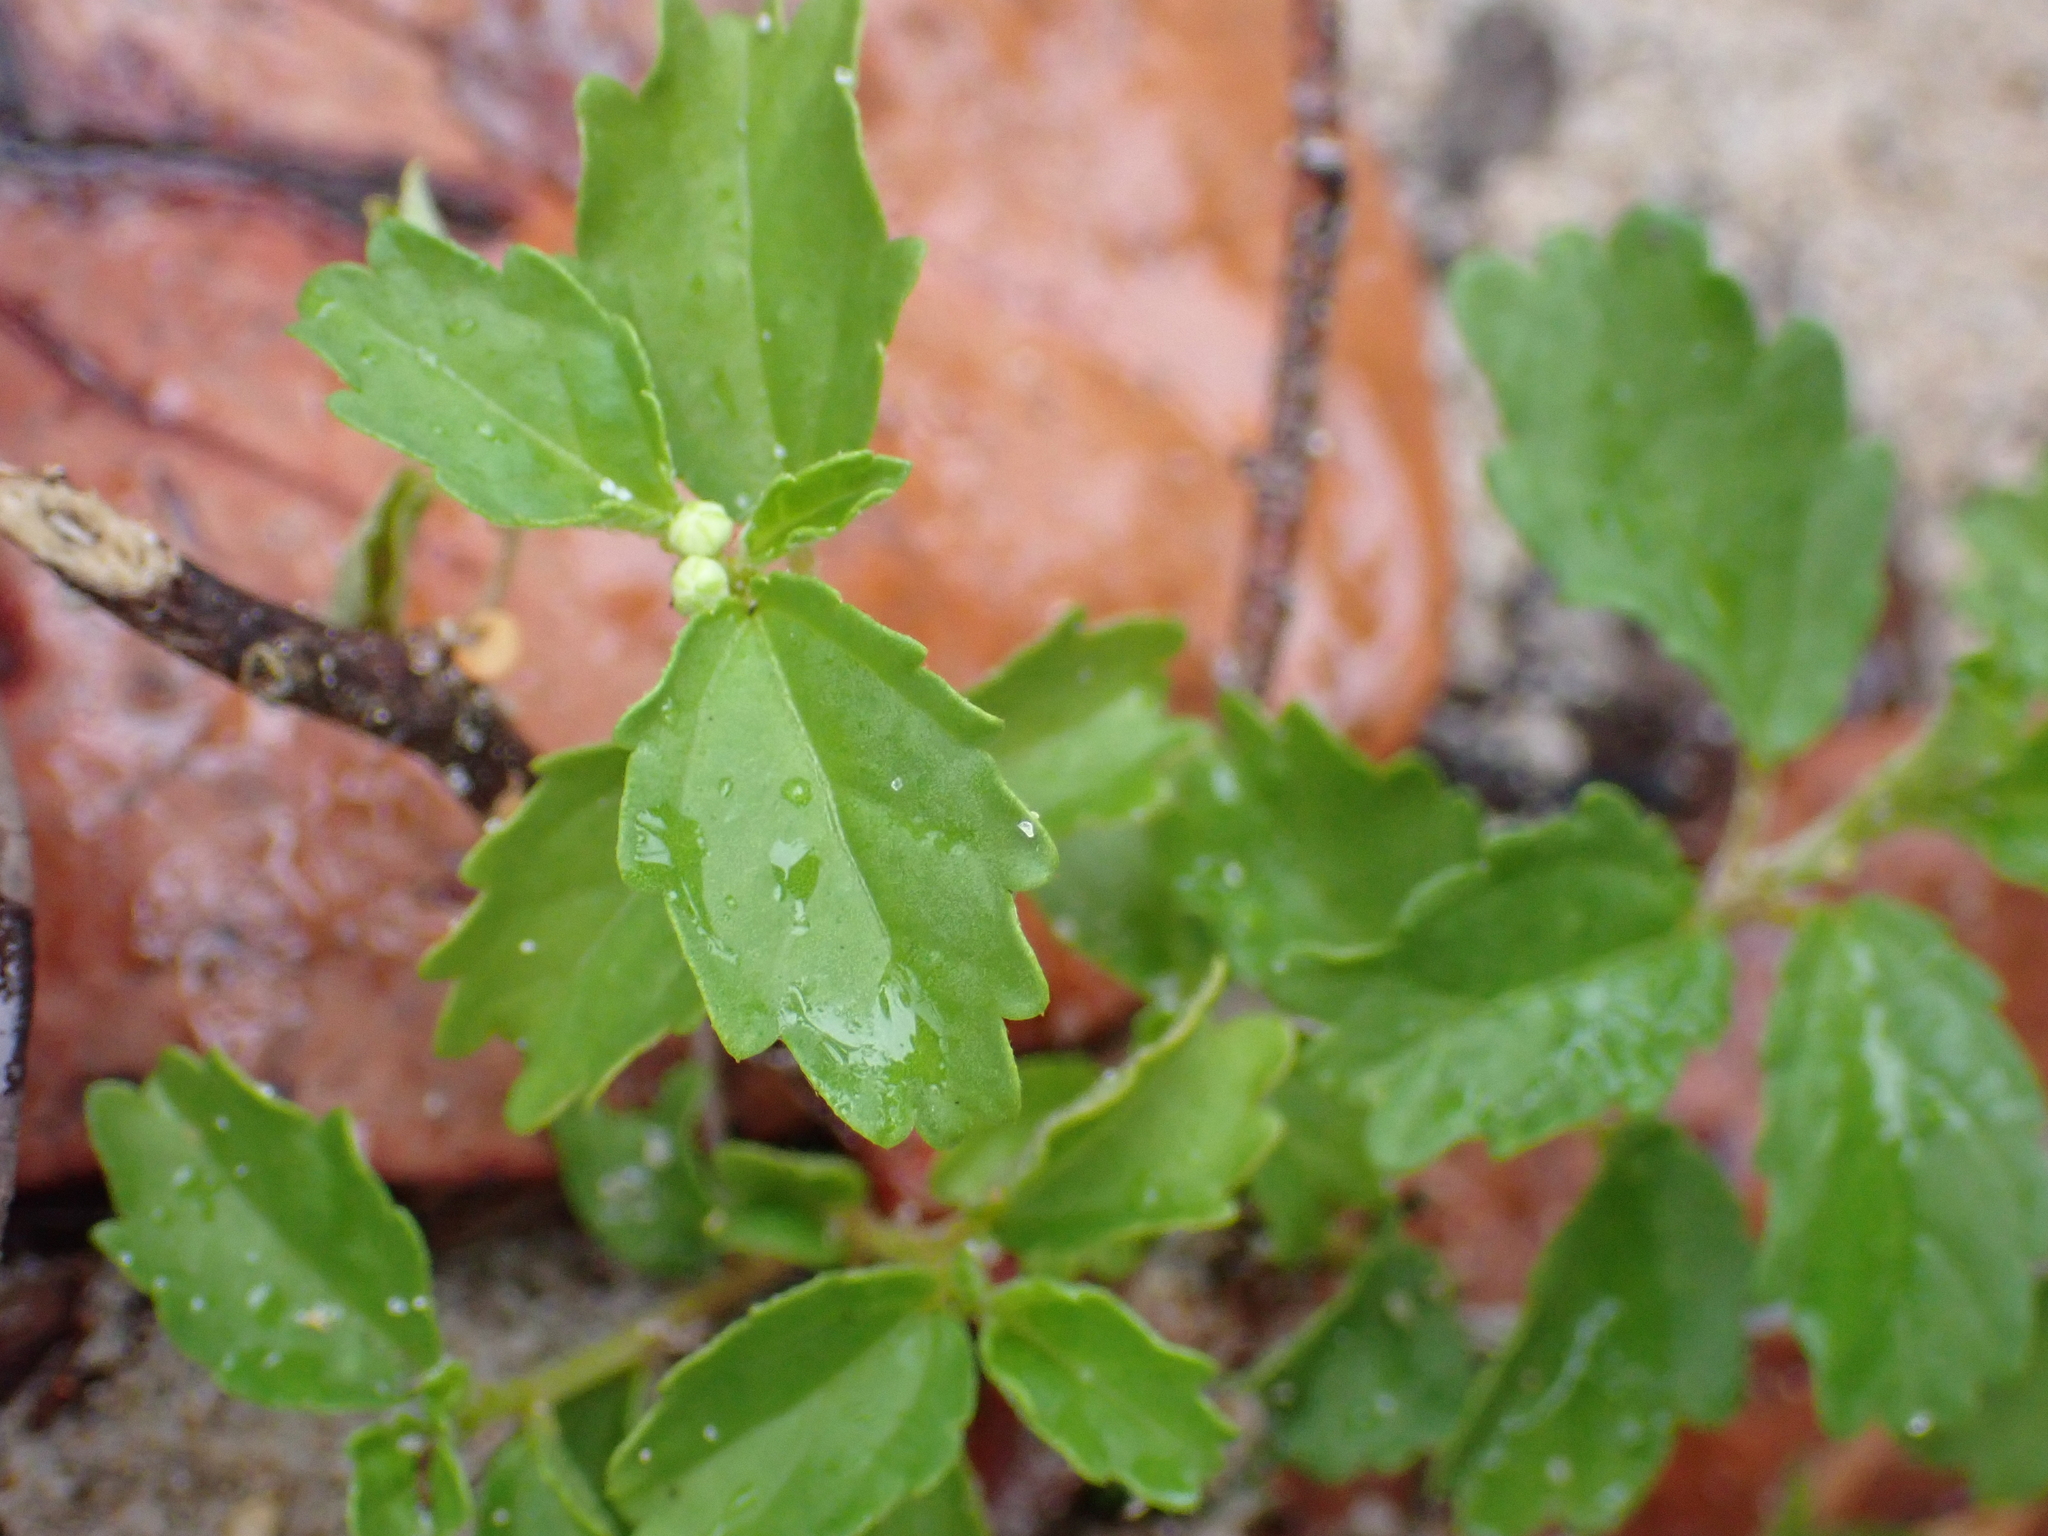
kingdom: Plantae
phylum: Tracheophyta
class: Magnoliopsida
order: Malpighiales
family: Euphorbiaceae
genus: Croton
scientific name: Croton glandulosus
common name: Tropic croton
